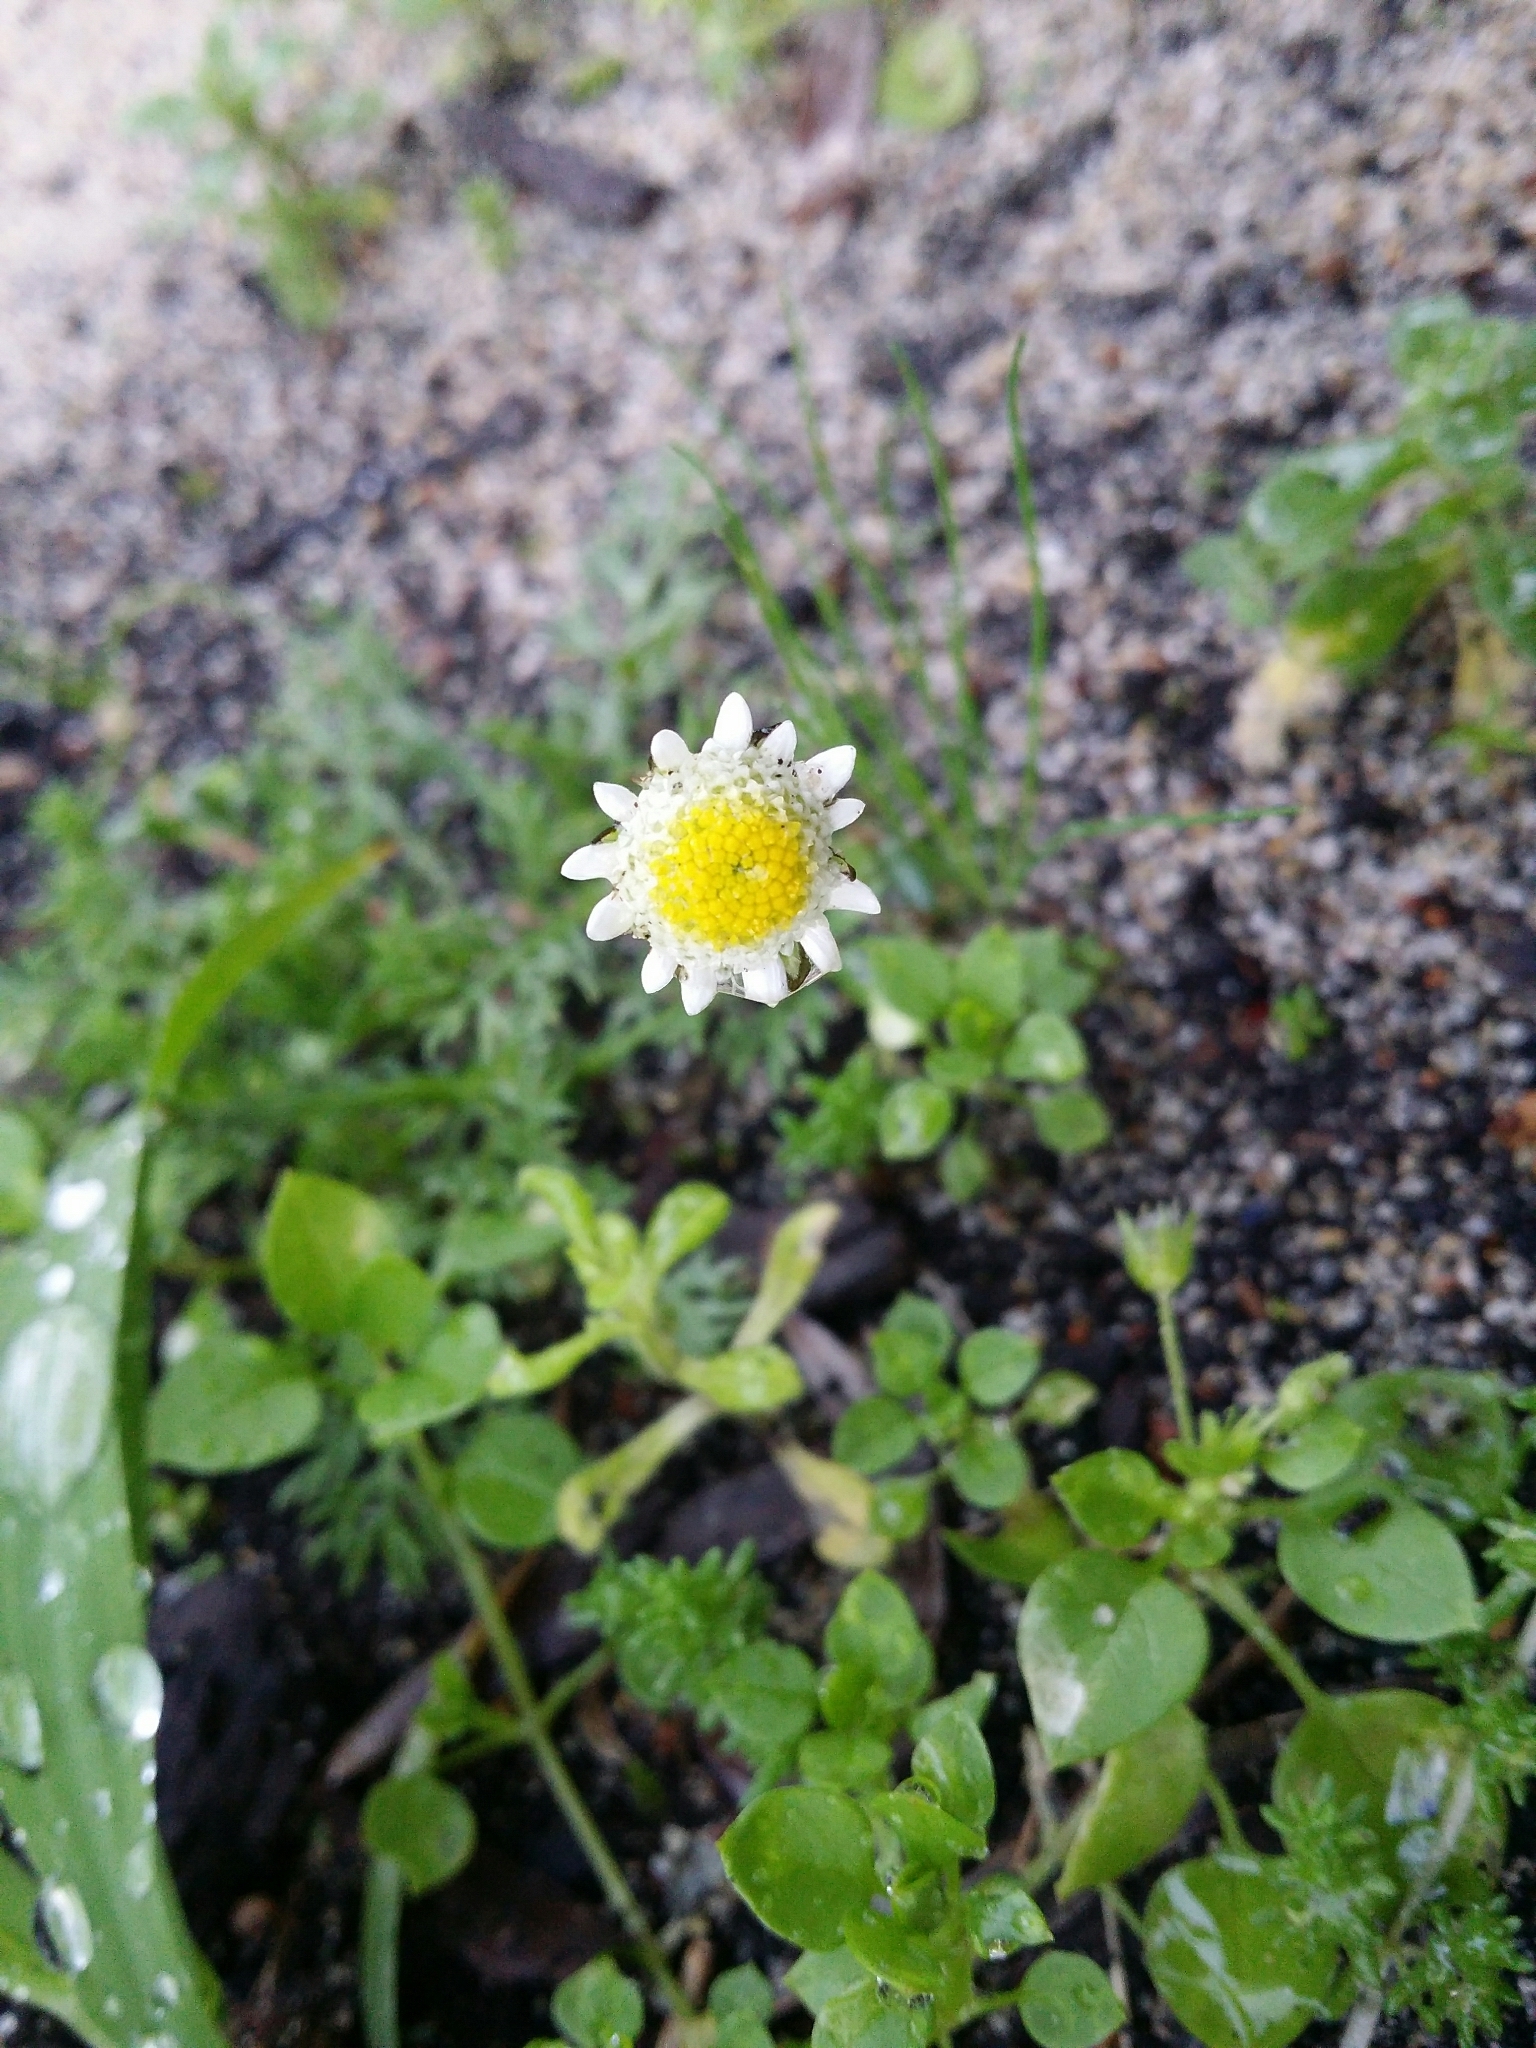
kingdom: Plantae
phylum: Tracheophyta
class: Magnoliopsida
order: Asterales
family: Asteraceae
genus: Cotula
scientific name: Cotula turbinata
